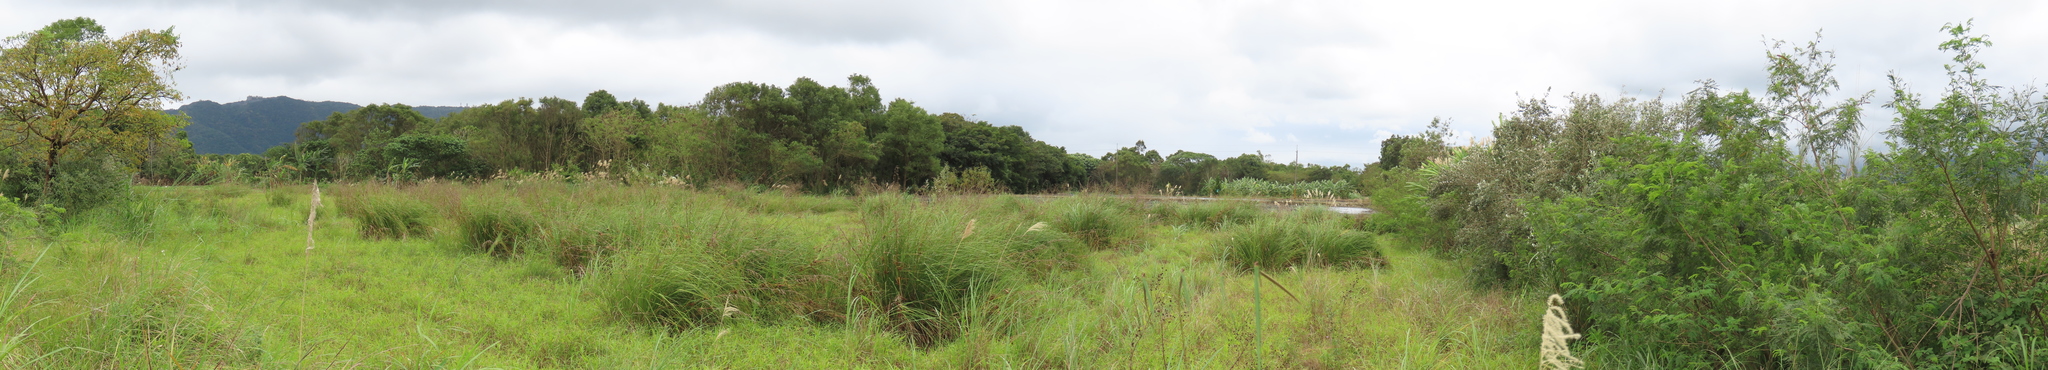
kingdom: Plantae
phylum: Tracheophyta
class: Liliopsida
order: Poales
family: Cyperaceae
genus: Cladium
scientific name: Cladium mariscus
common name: Great fen-sedge
